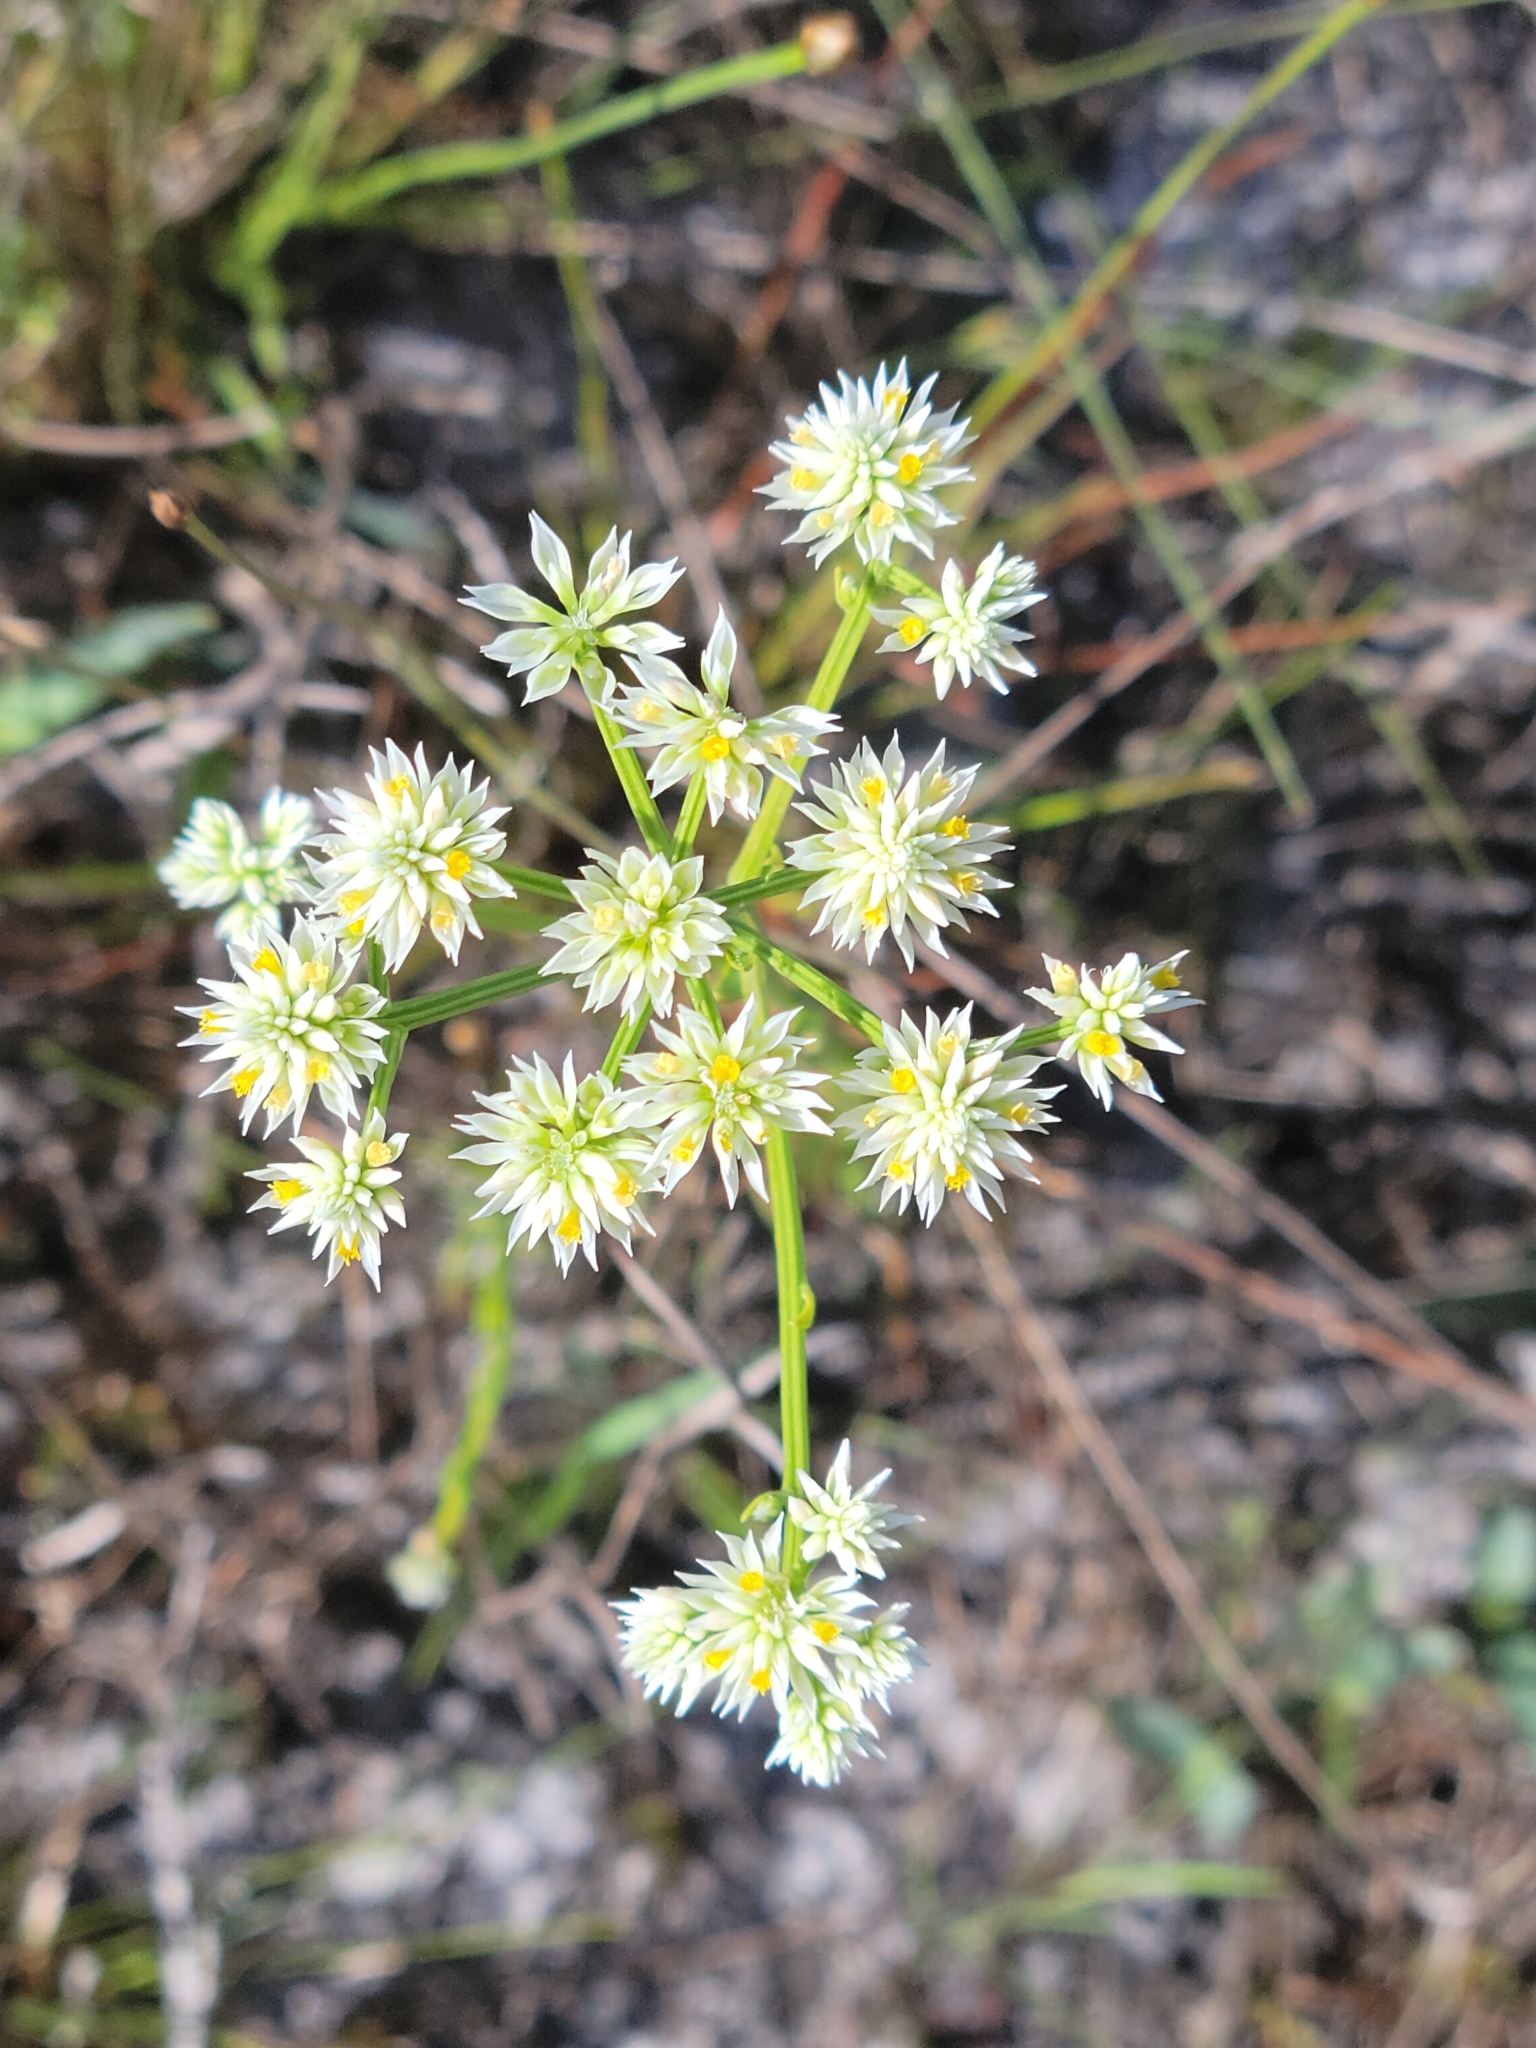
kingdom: Plantae
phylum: Tracheophyta
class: Magnoliopsida
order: Fabales
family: Polygalaceae
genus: Polygala
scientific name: Polygala baldwinii
